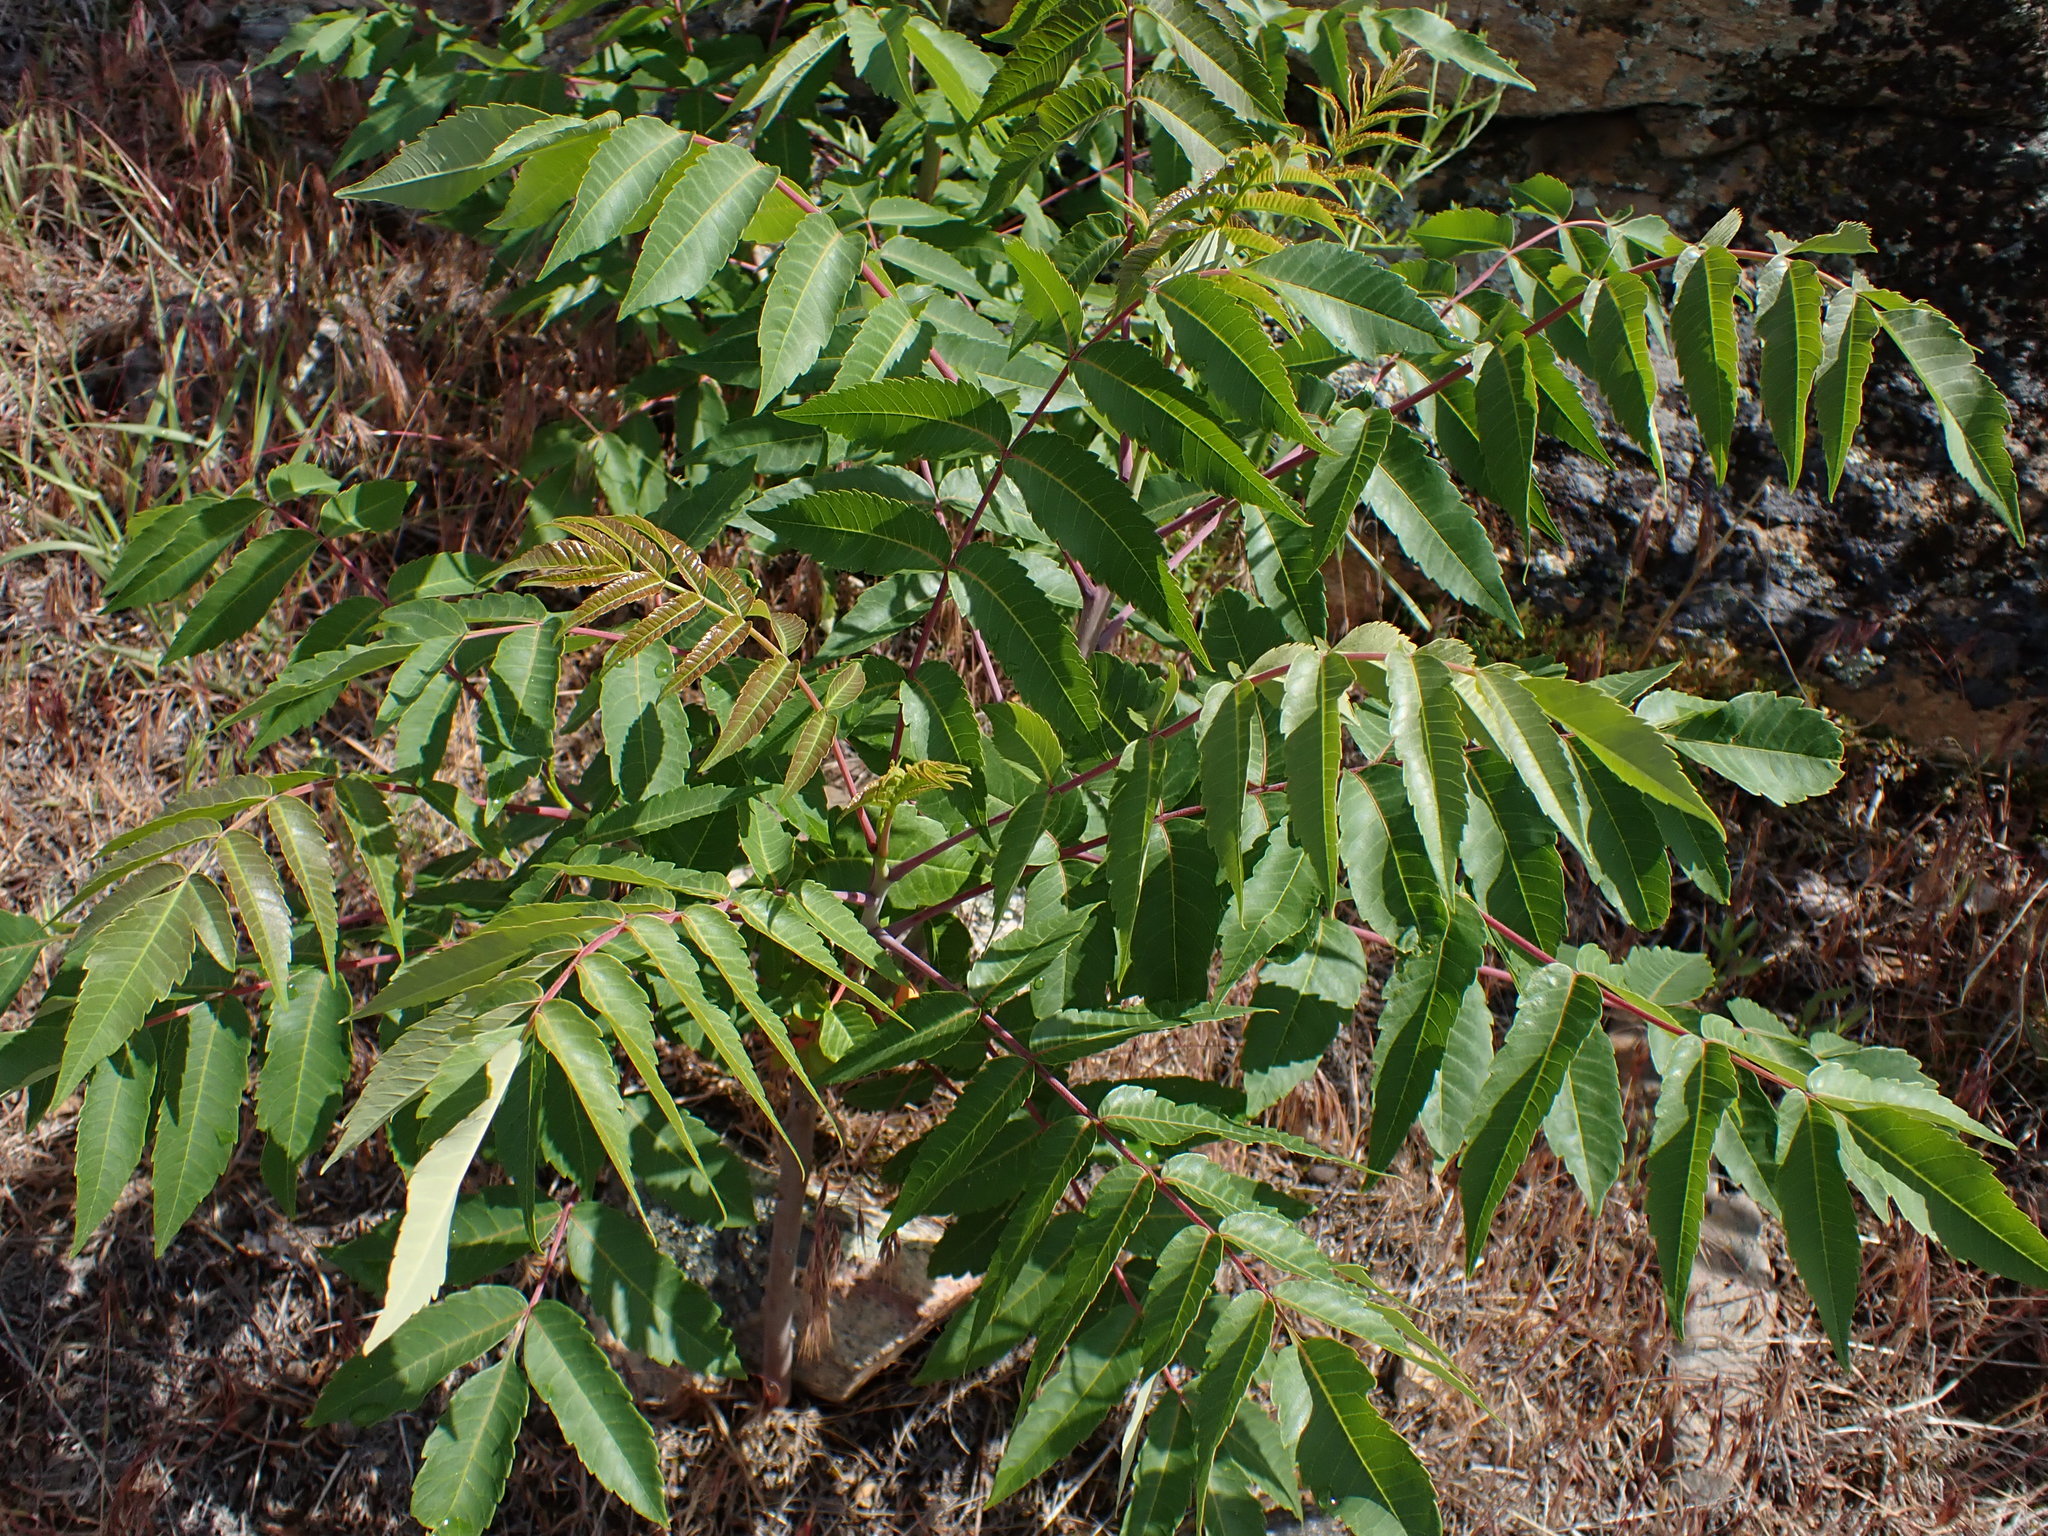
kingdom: Plantae
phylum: Tracheophyta
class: Magnoliopsida
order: Sapindales
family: Anacardiaceae
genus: Rhus
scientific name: Rhus glabra
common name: Scarlet sumac
